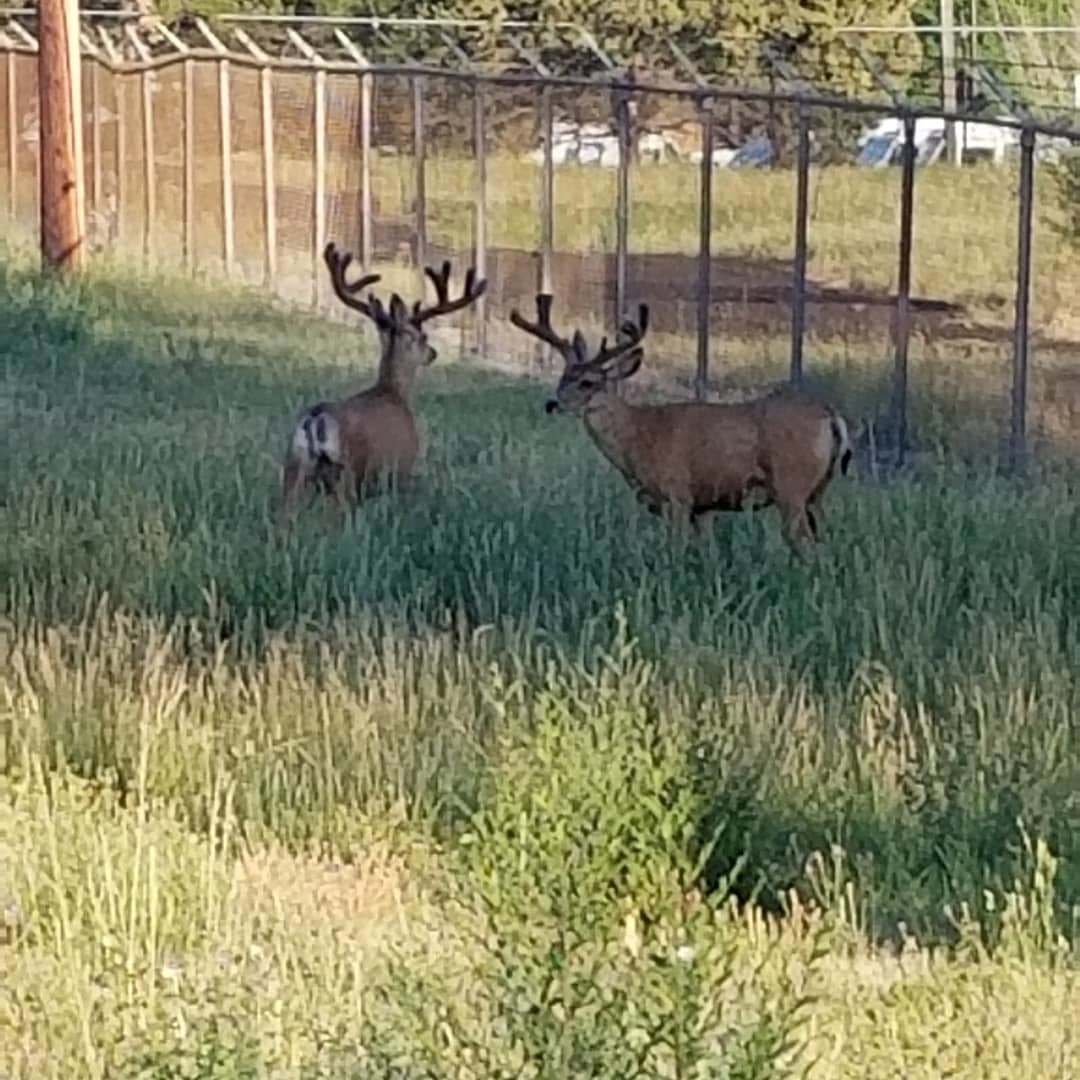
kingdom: Animalia
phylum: Chordata
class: Mammalia
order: Artiodactyla
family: Cervidae
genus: Odocoileus
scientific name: Odocoileus hemionus
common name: Mule deer
